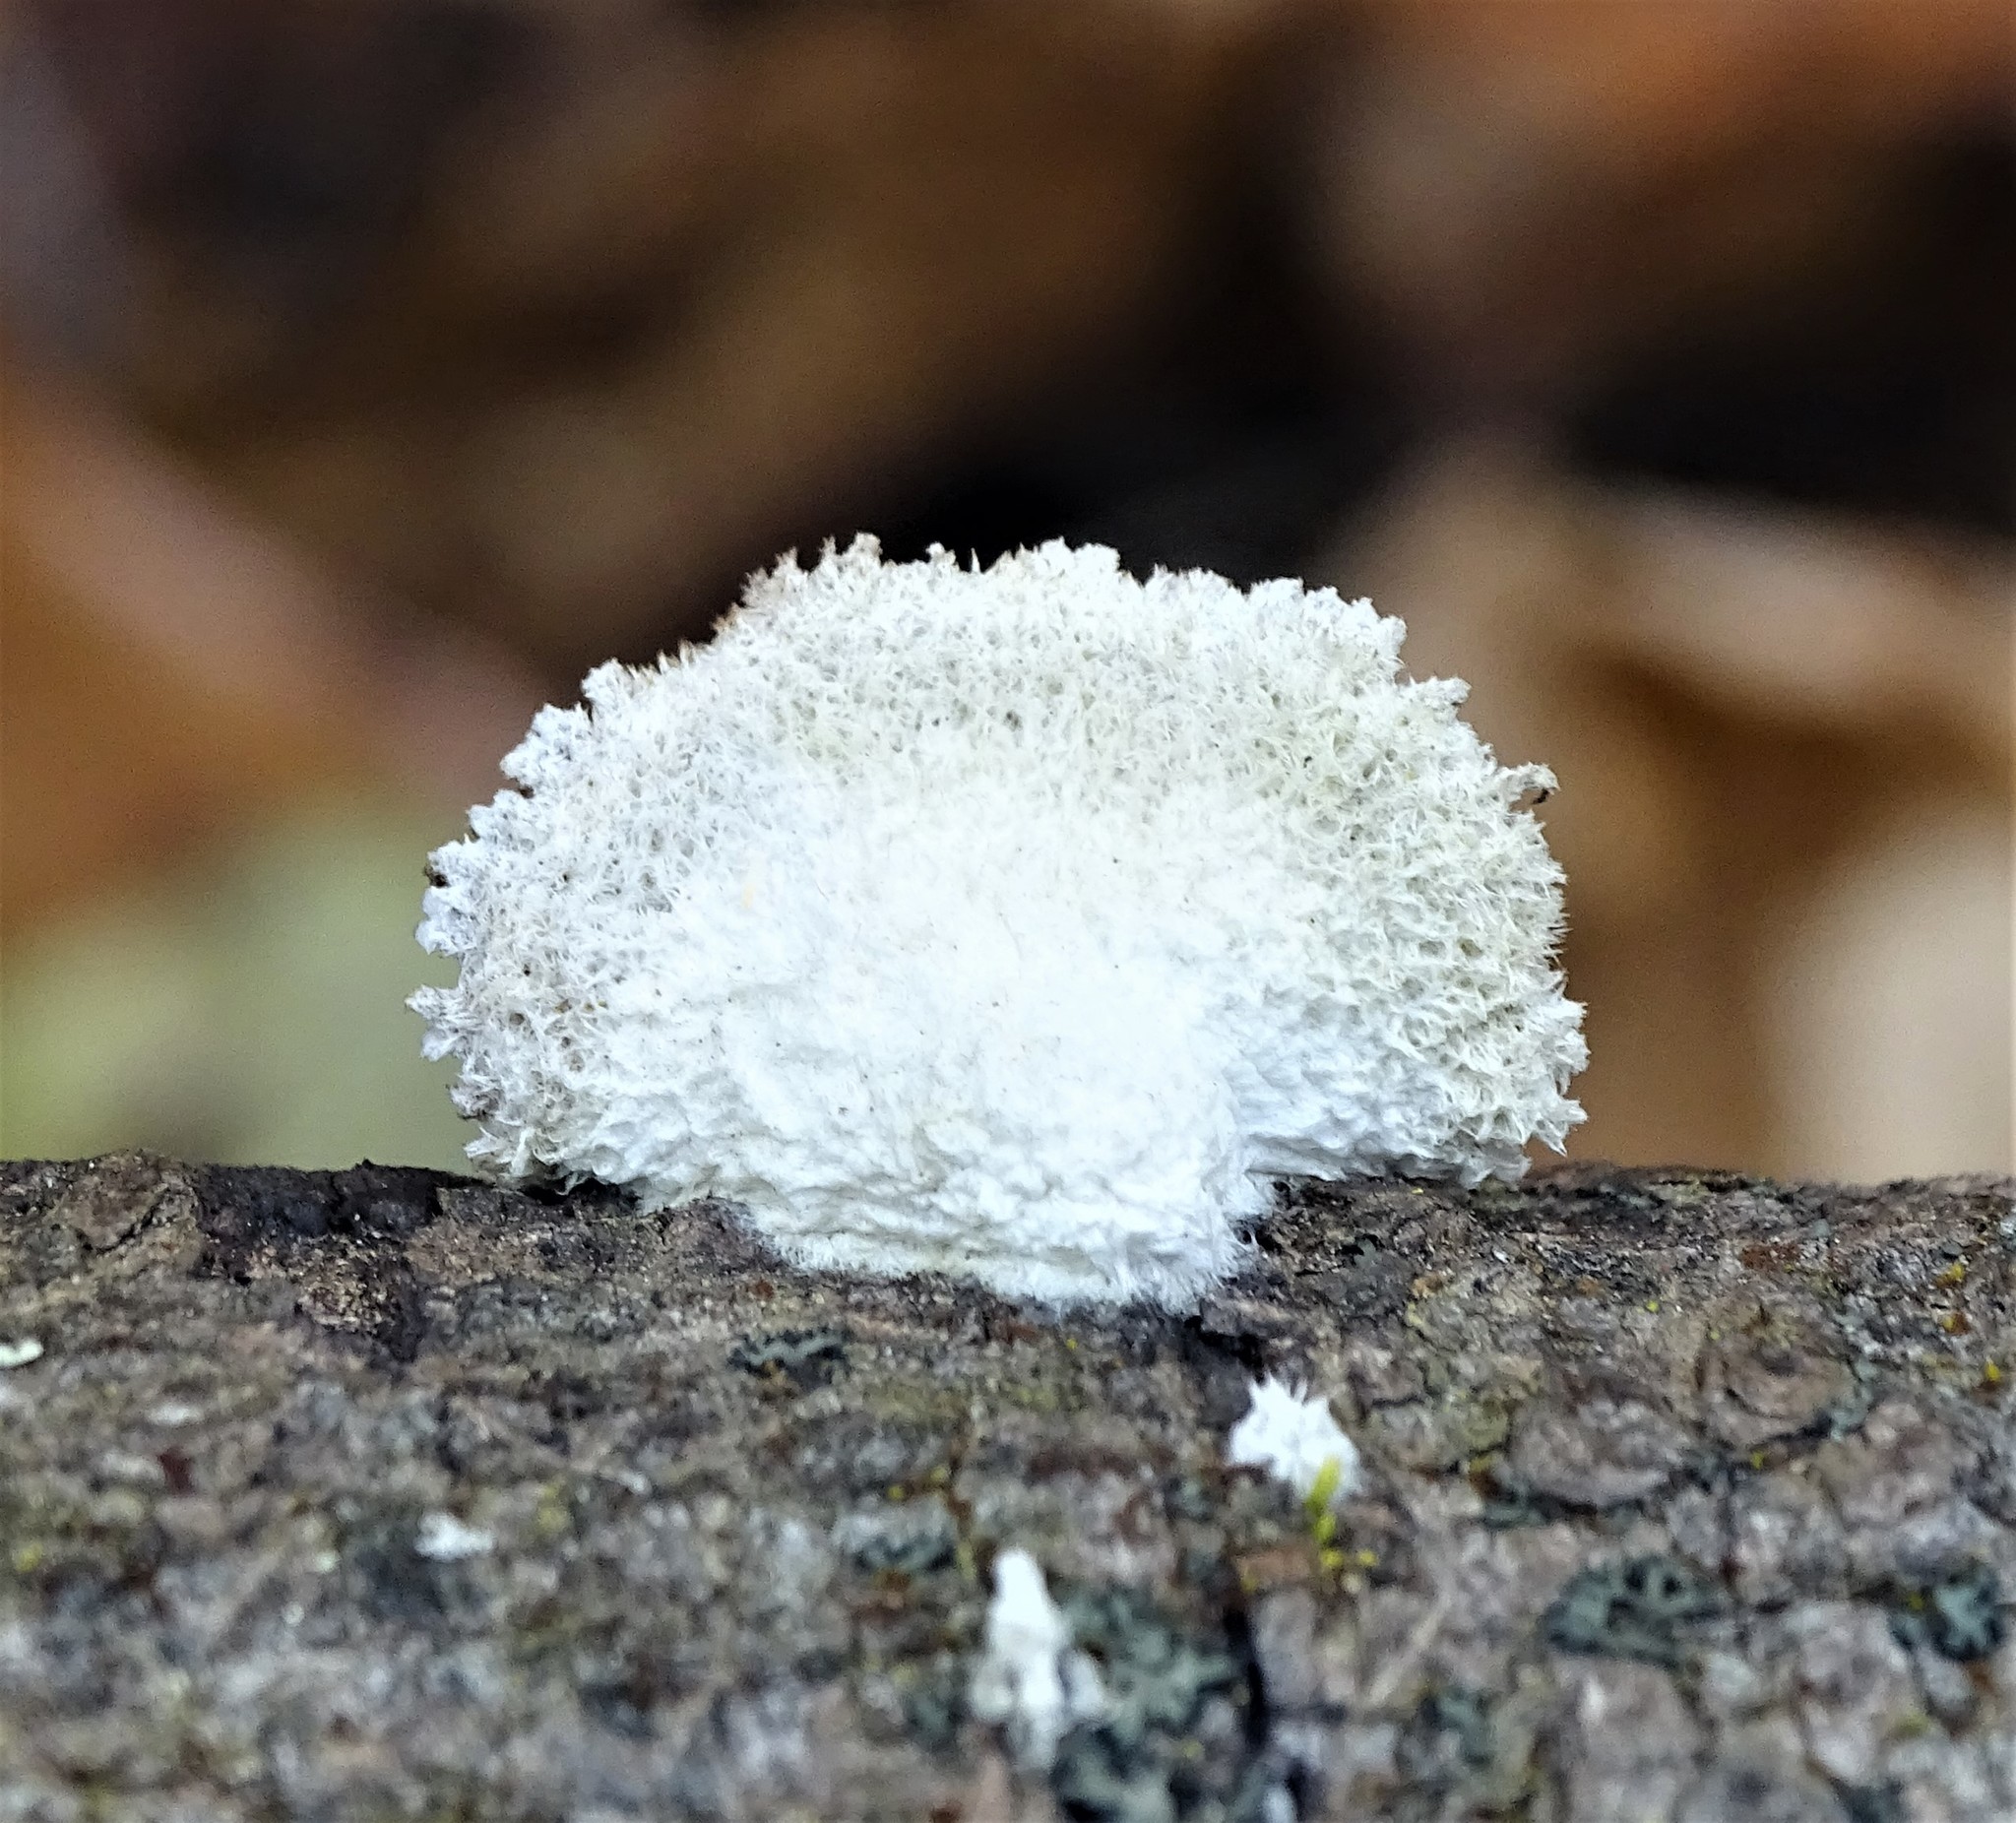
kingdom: Fungi
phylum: Basidiomycota
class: Agaricomycetes
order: Agaricales
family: Schizophyllaceae
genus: Schizophyllum
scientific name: Schizophyllum commune
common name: Common porecrust
